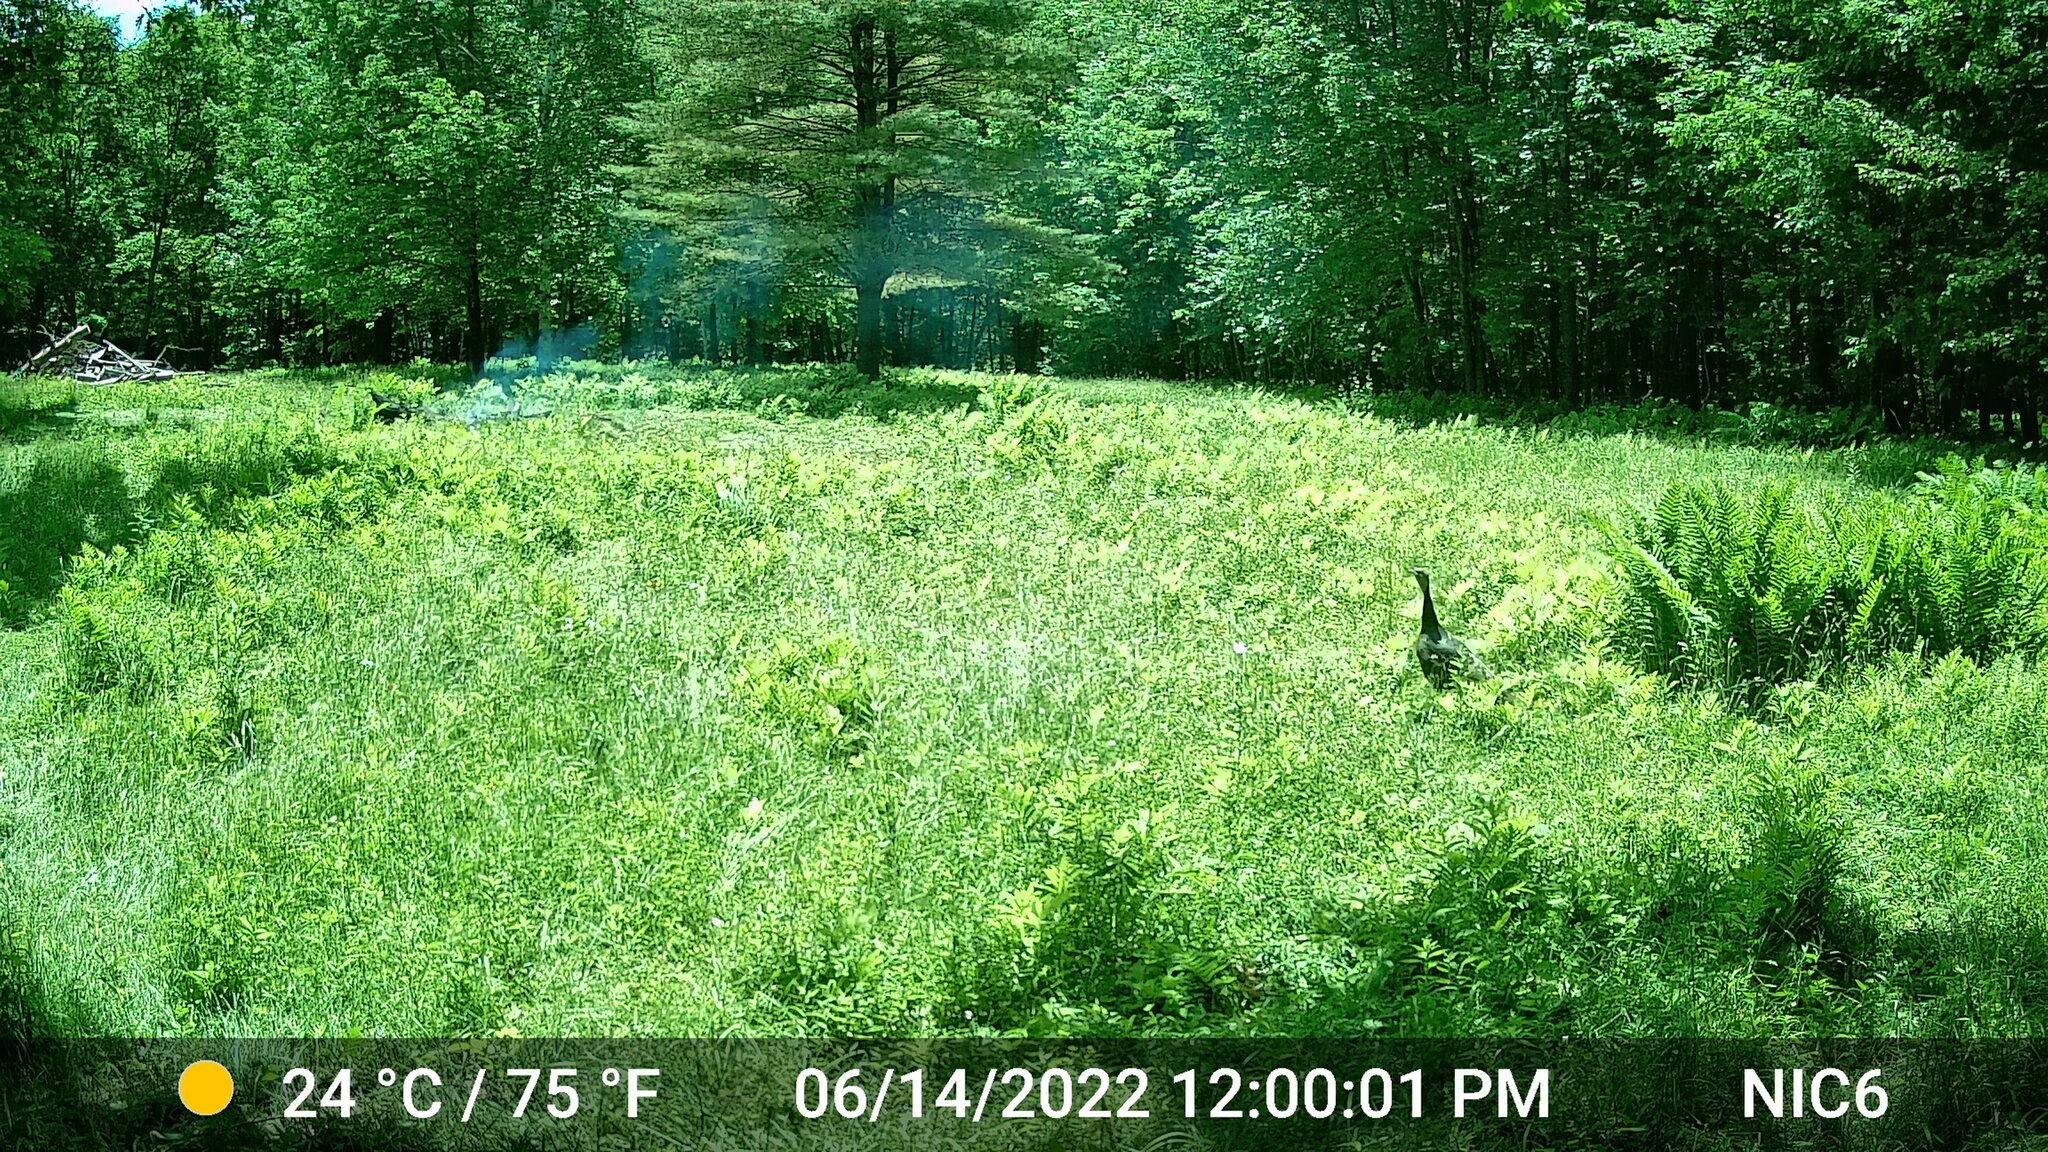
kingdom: Animalia
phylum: Chordata
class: Aves
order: Galliformes
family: Phasianidae
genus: Meleagris
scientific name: Meleagris gallopavo
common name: Wild turkey
